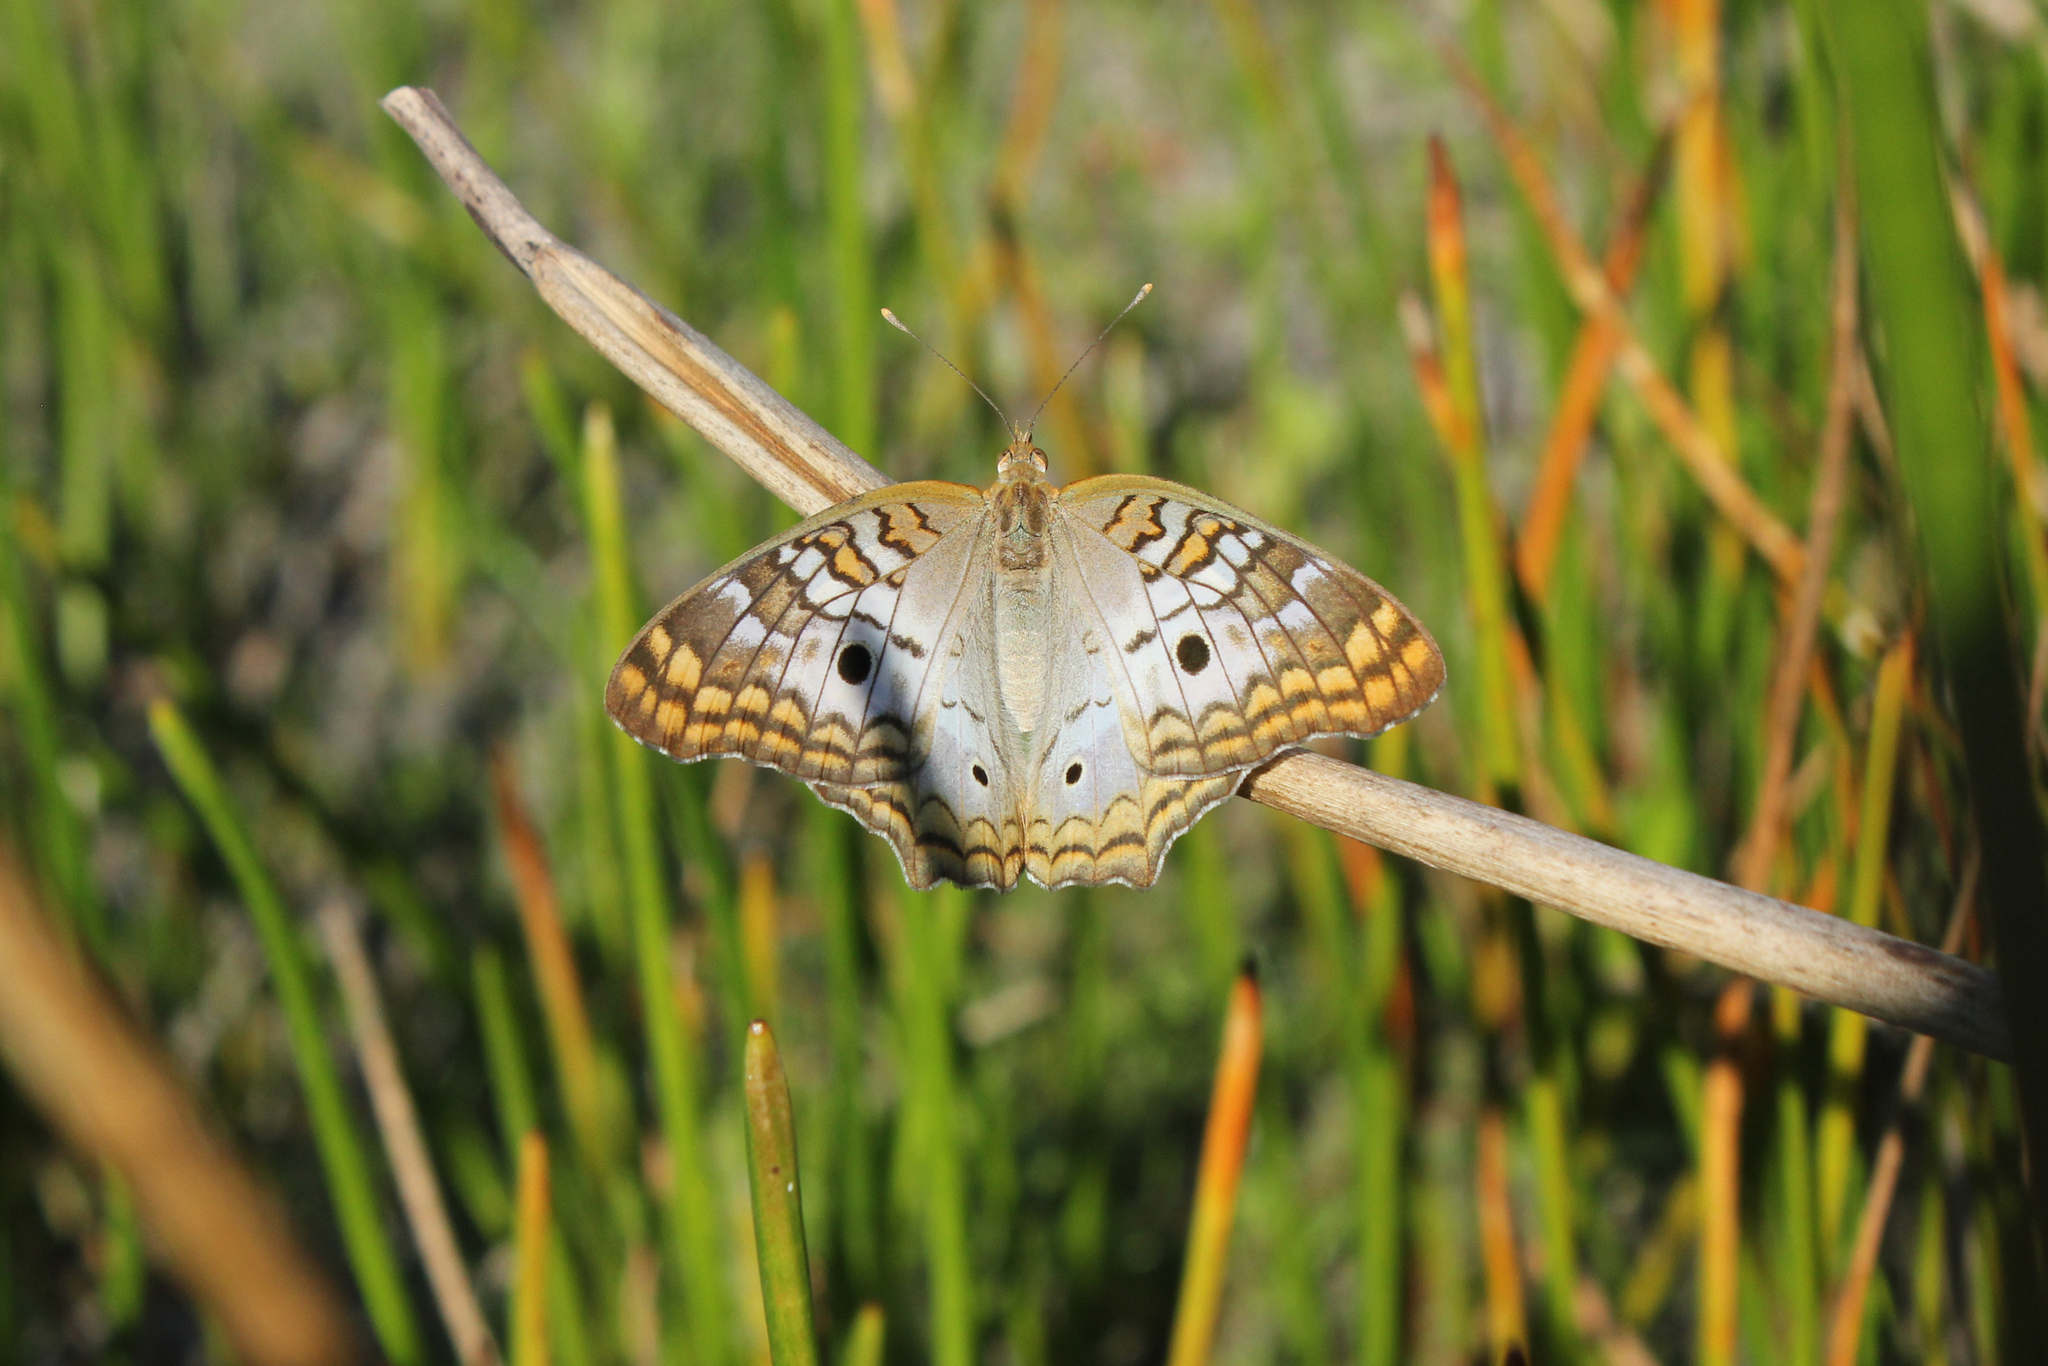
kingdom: Animalia
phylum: Arthropoda
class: Insecta
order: Lepidoptera
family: Nymphalidae
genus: Anartia
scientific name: Anartia jatrophae
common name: White peacock
